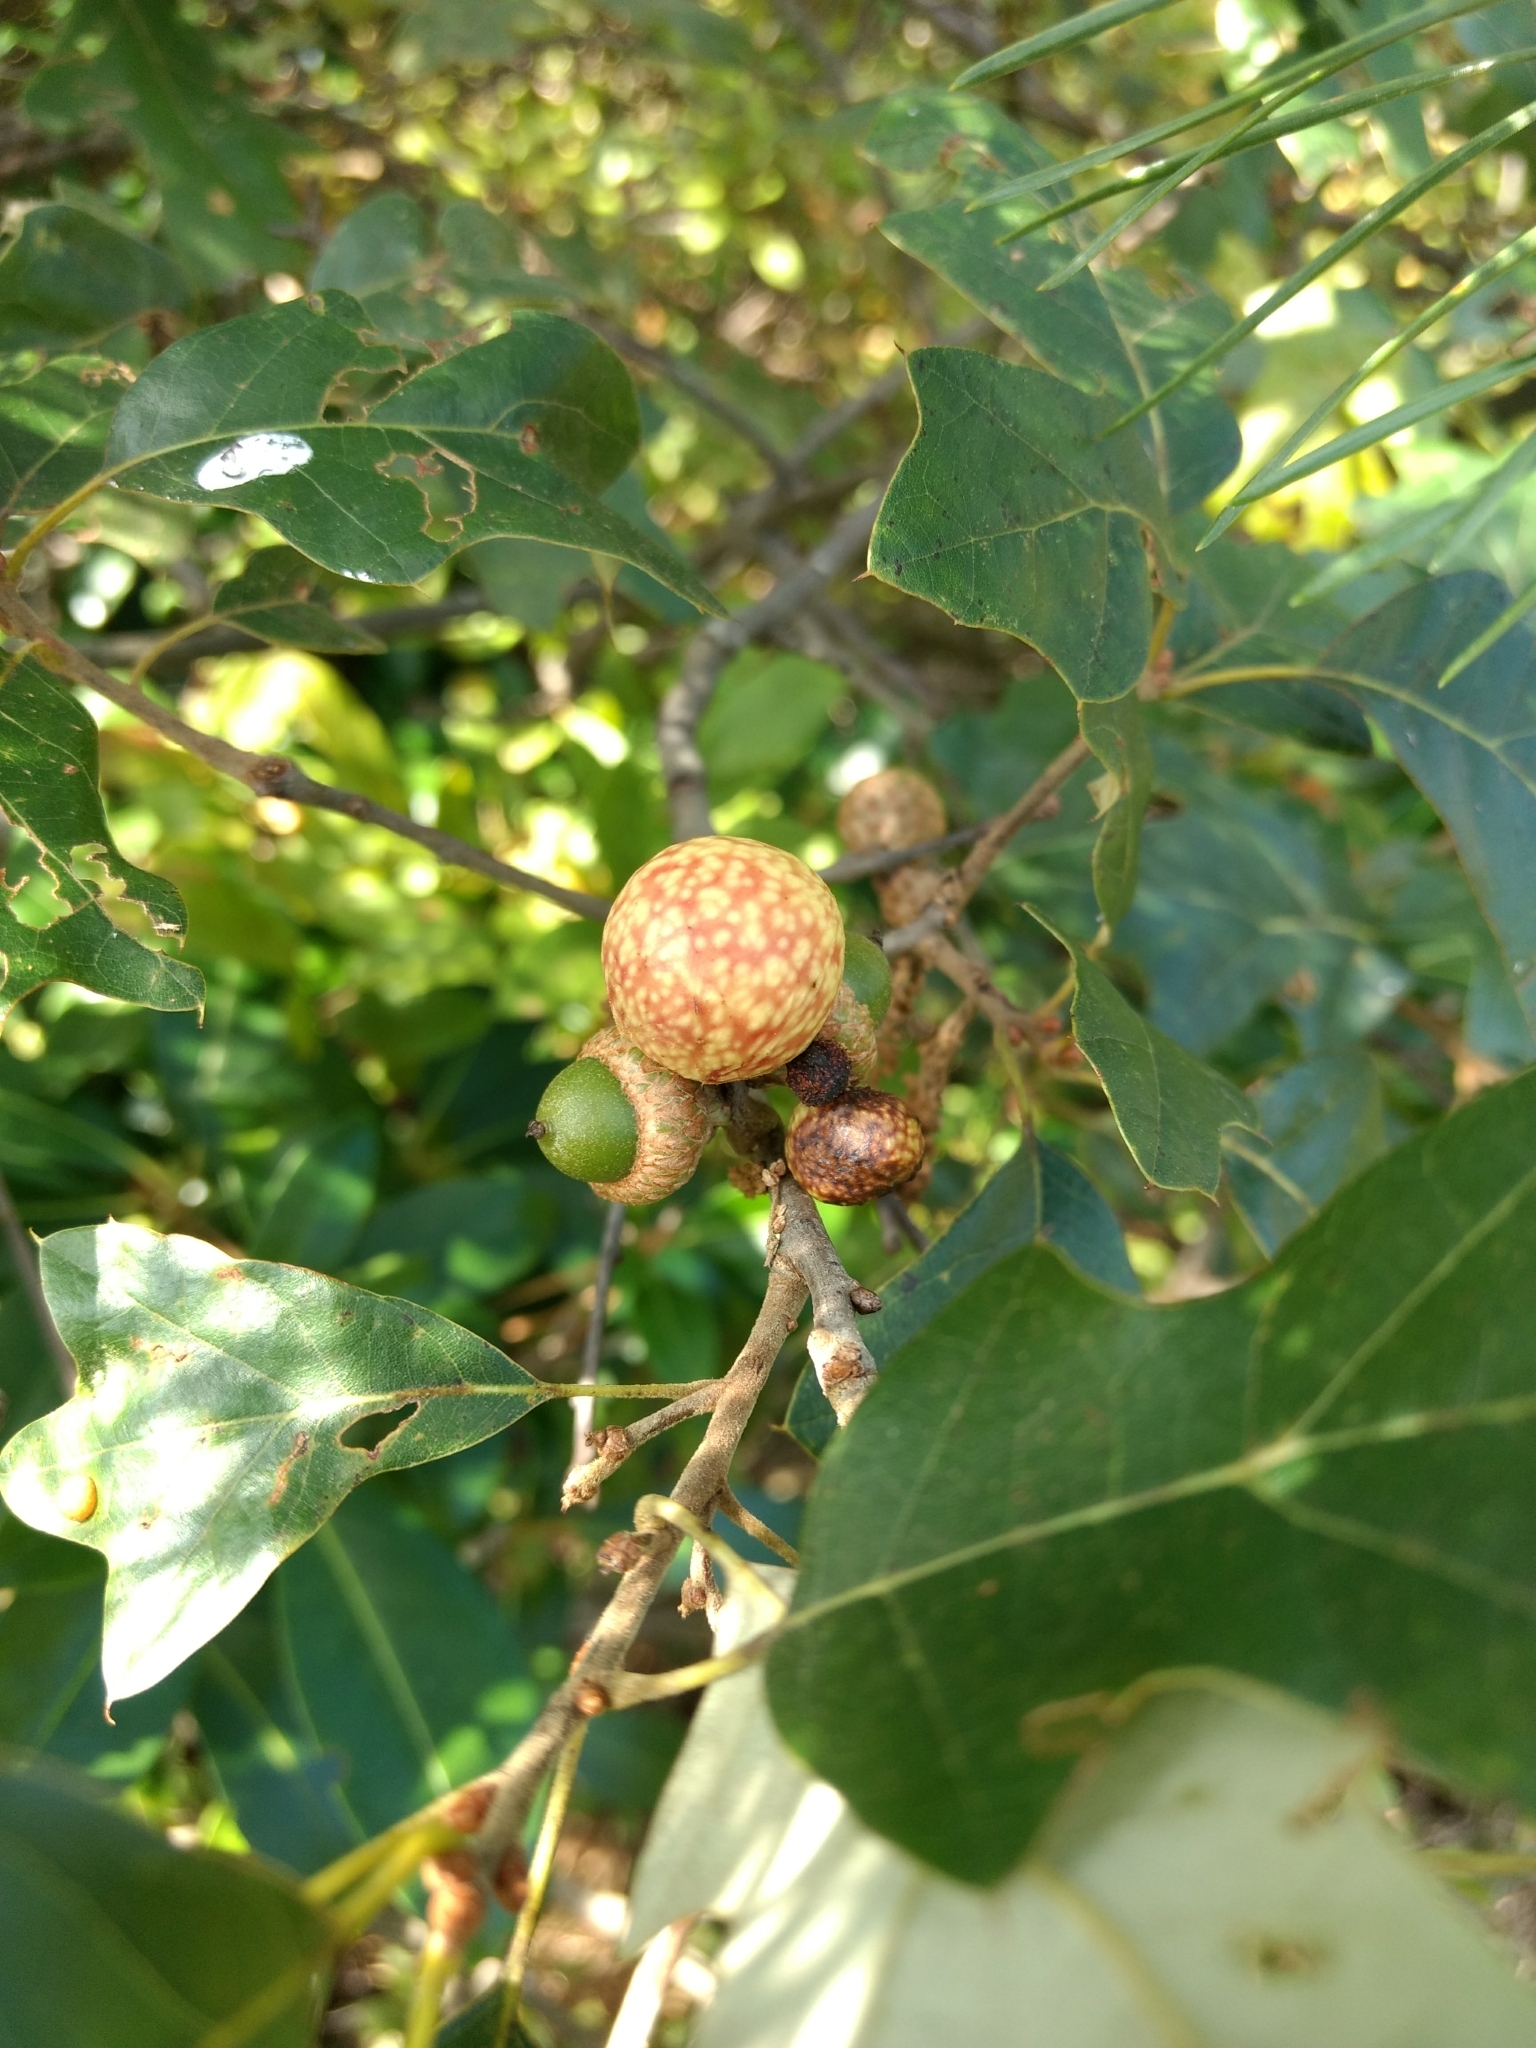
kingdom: Animalia
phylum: Arthropoda
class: Insecta
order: Hymenoptera
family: Cynipidae
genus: Amphibolips
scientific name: Amphibolips
